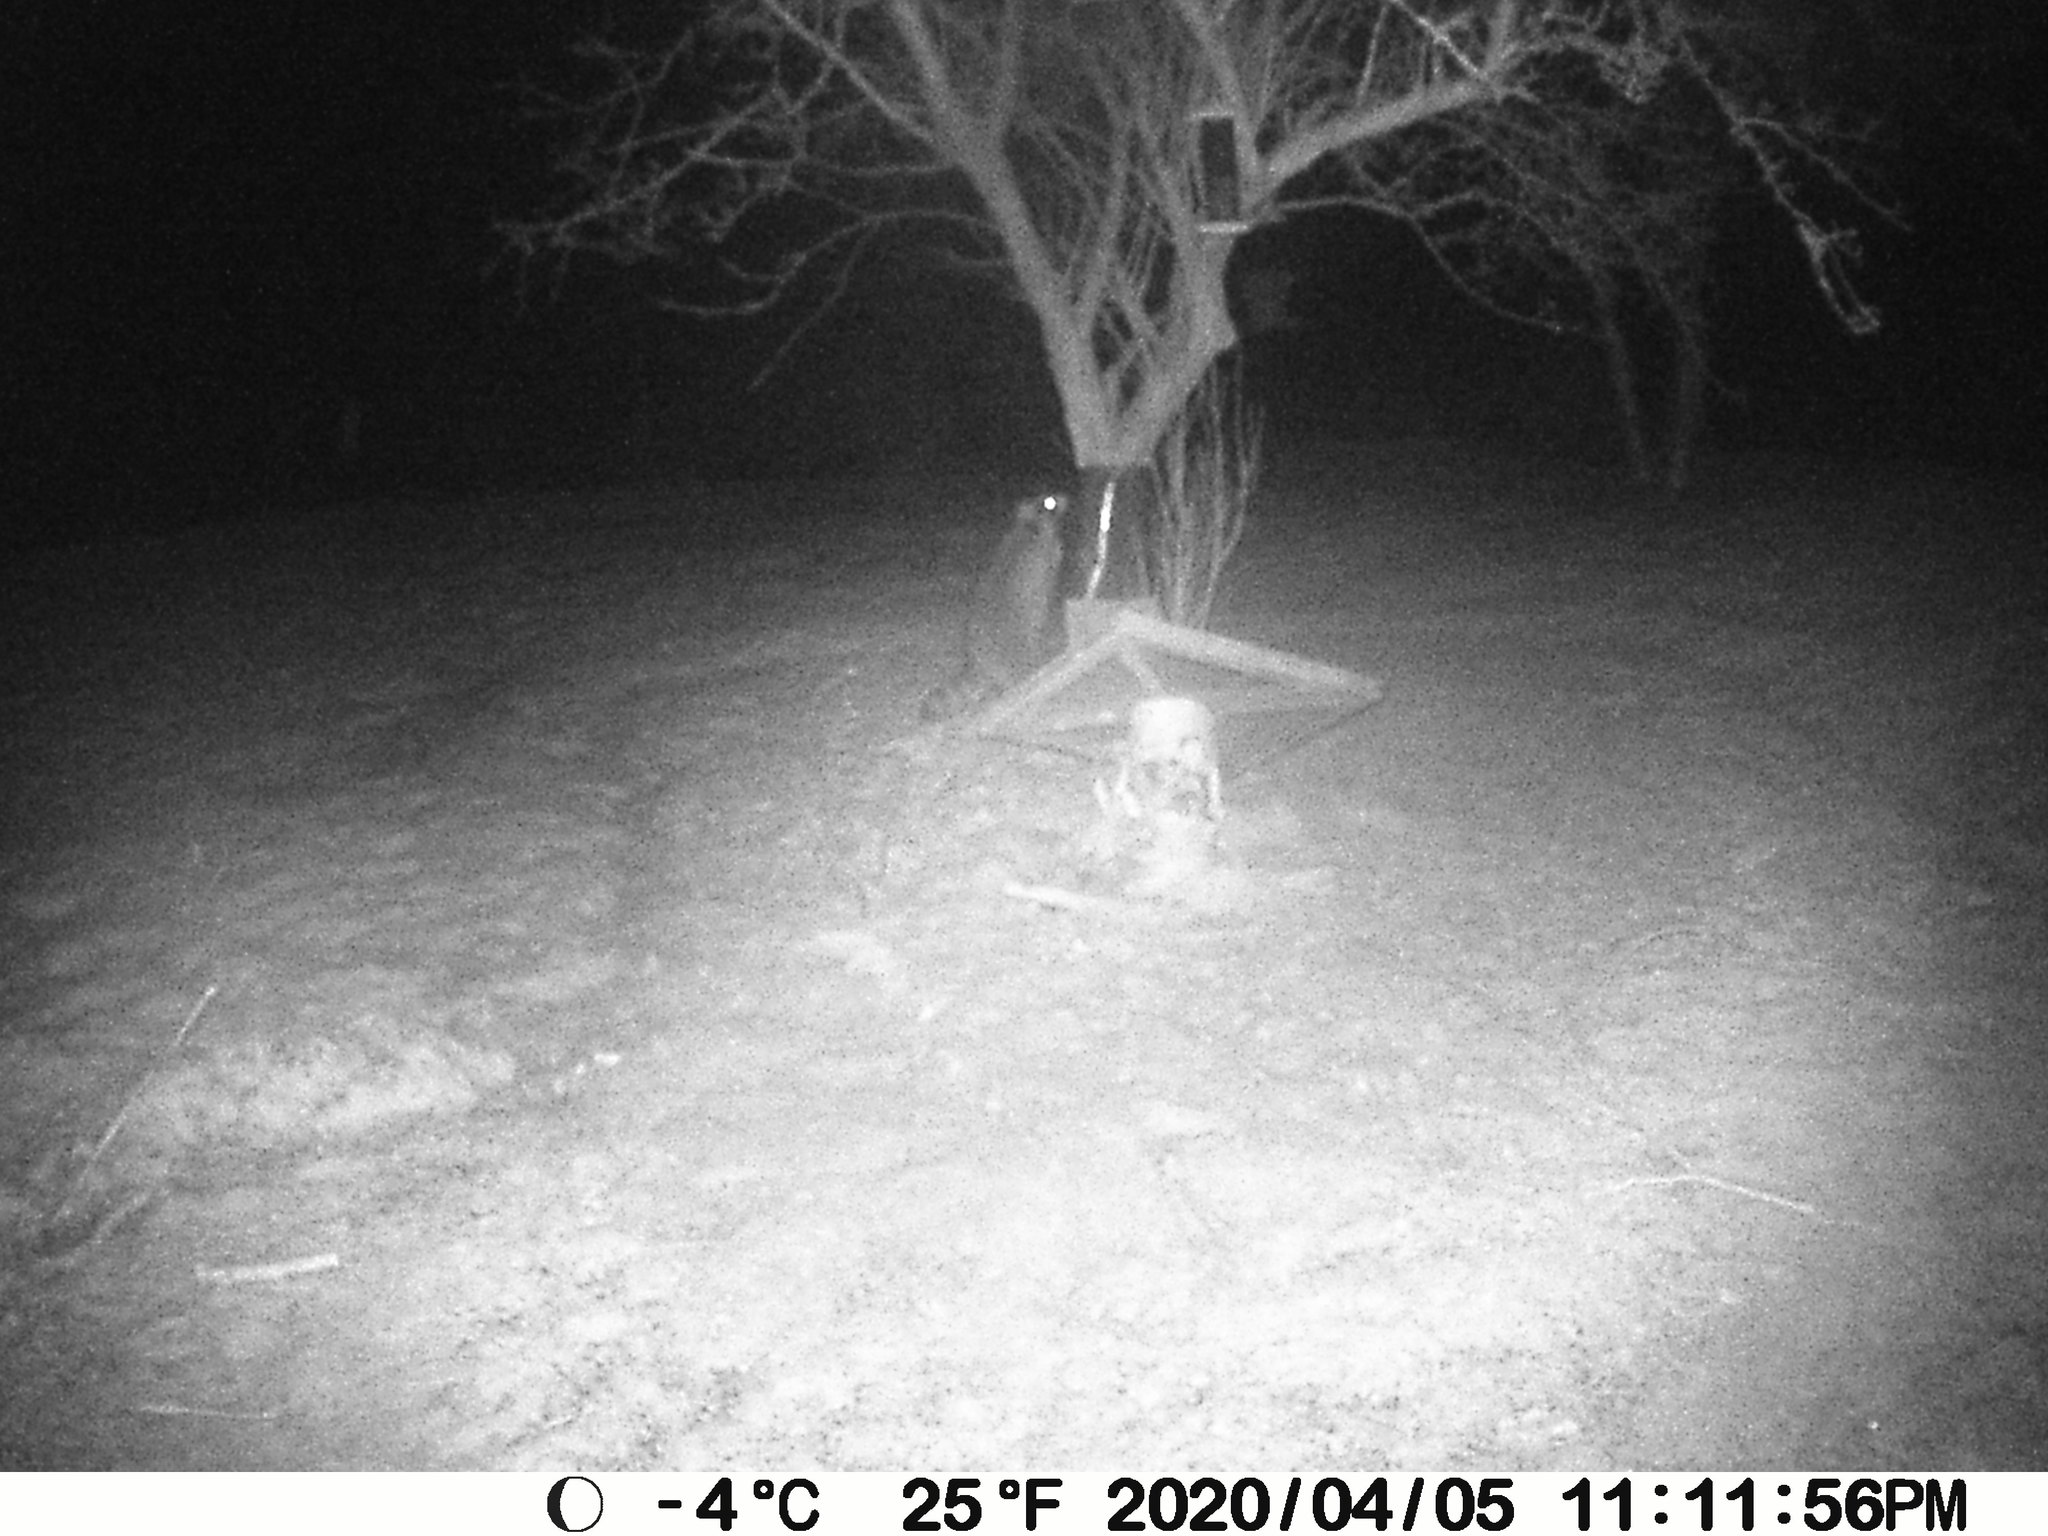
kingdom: Animalia
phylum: Chordata
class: Mammalia
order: Carnivora
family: Procyonidae
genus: Procyon
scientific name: Procyon lotor
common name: Raccoon
